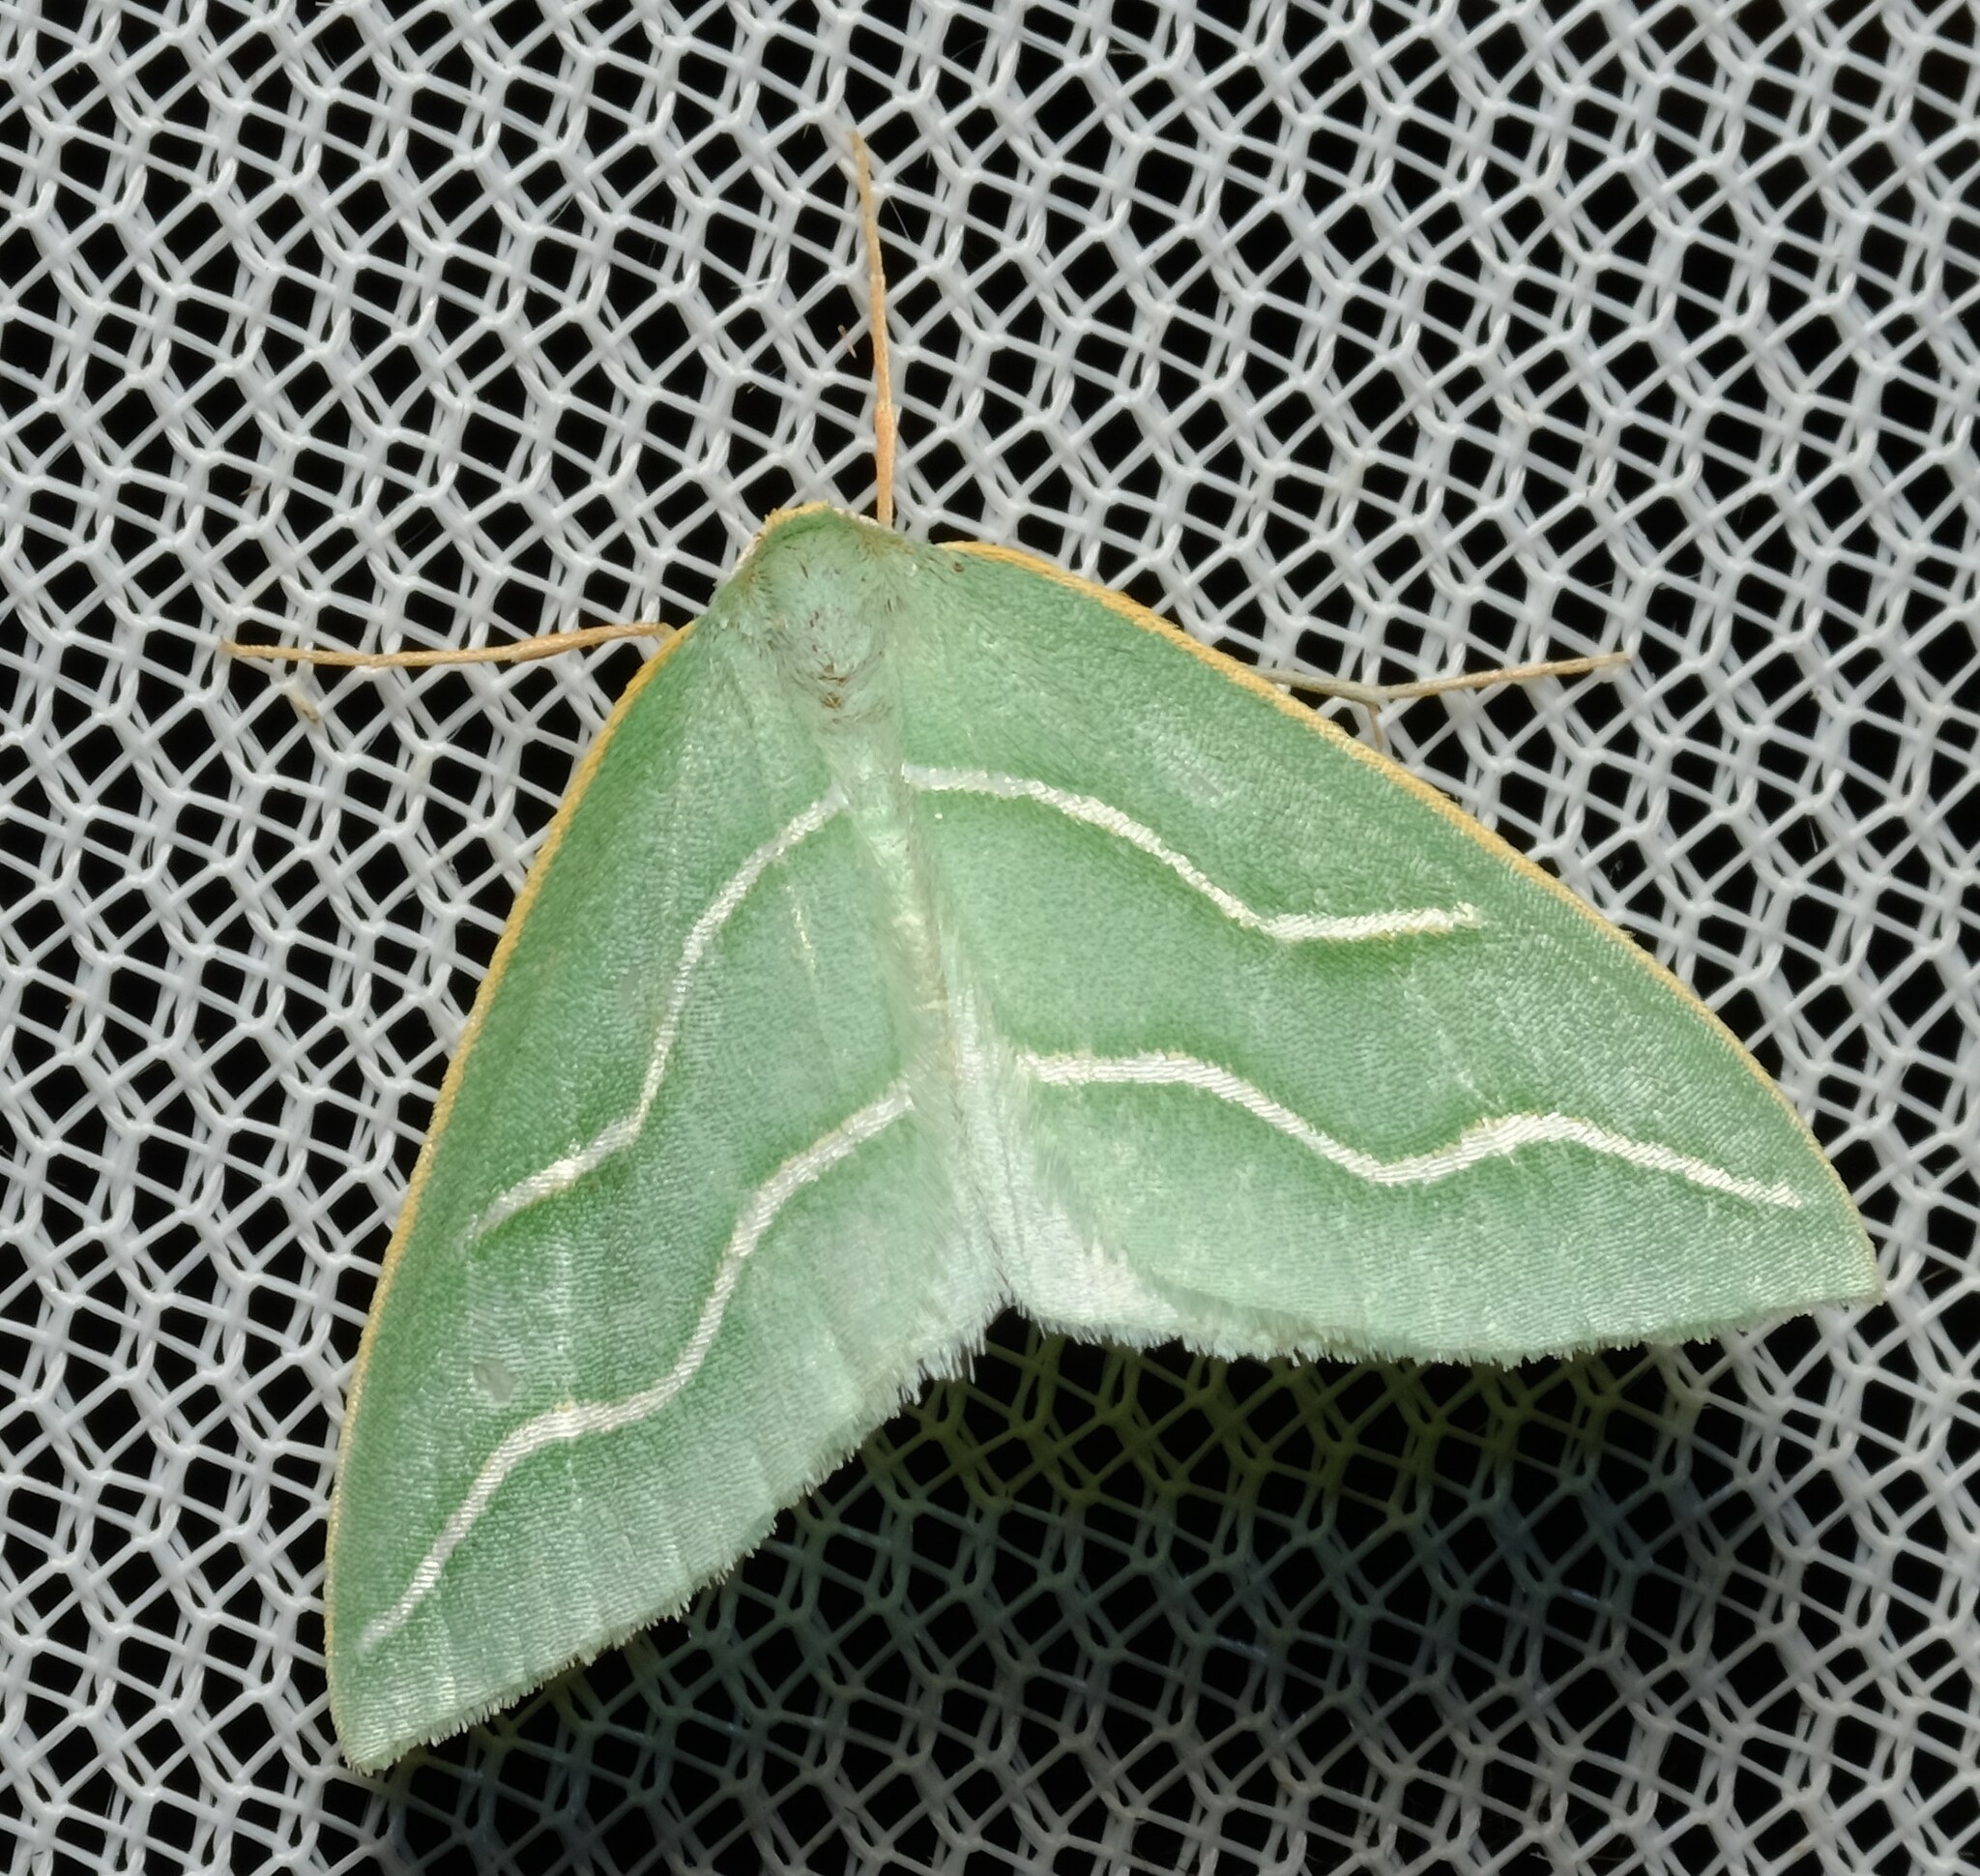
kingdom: Animalia
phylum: Arthropoda
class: Insecta
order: Lepidoptera
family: Geometridae
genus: Euloxia
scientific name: Euloxia meandraria
